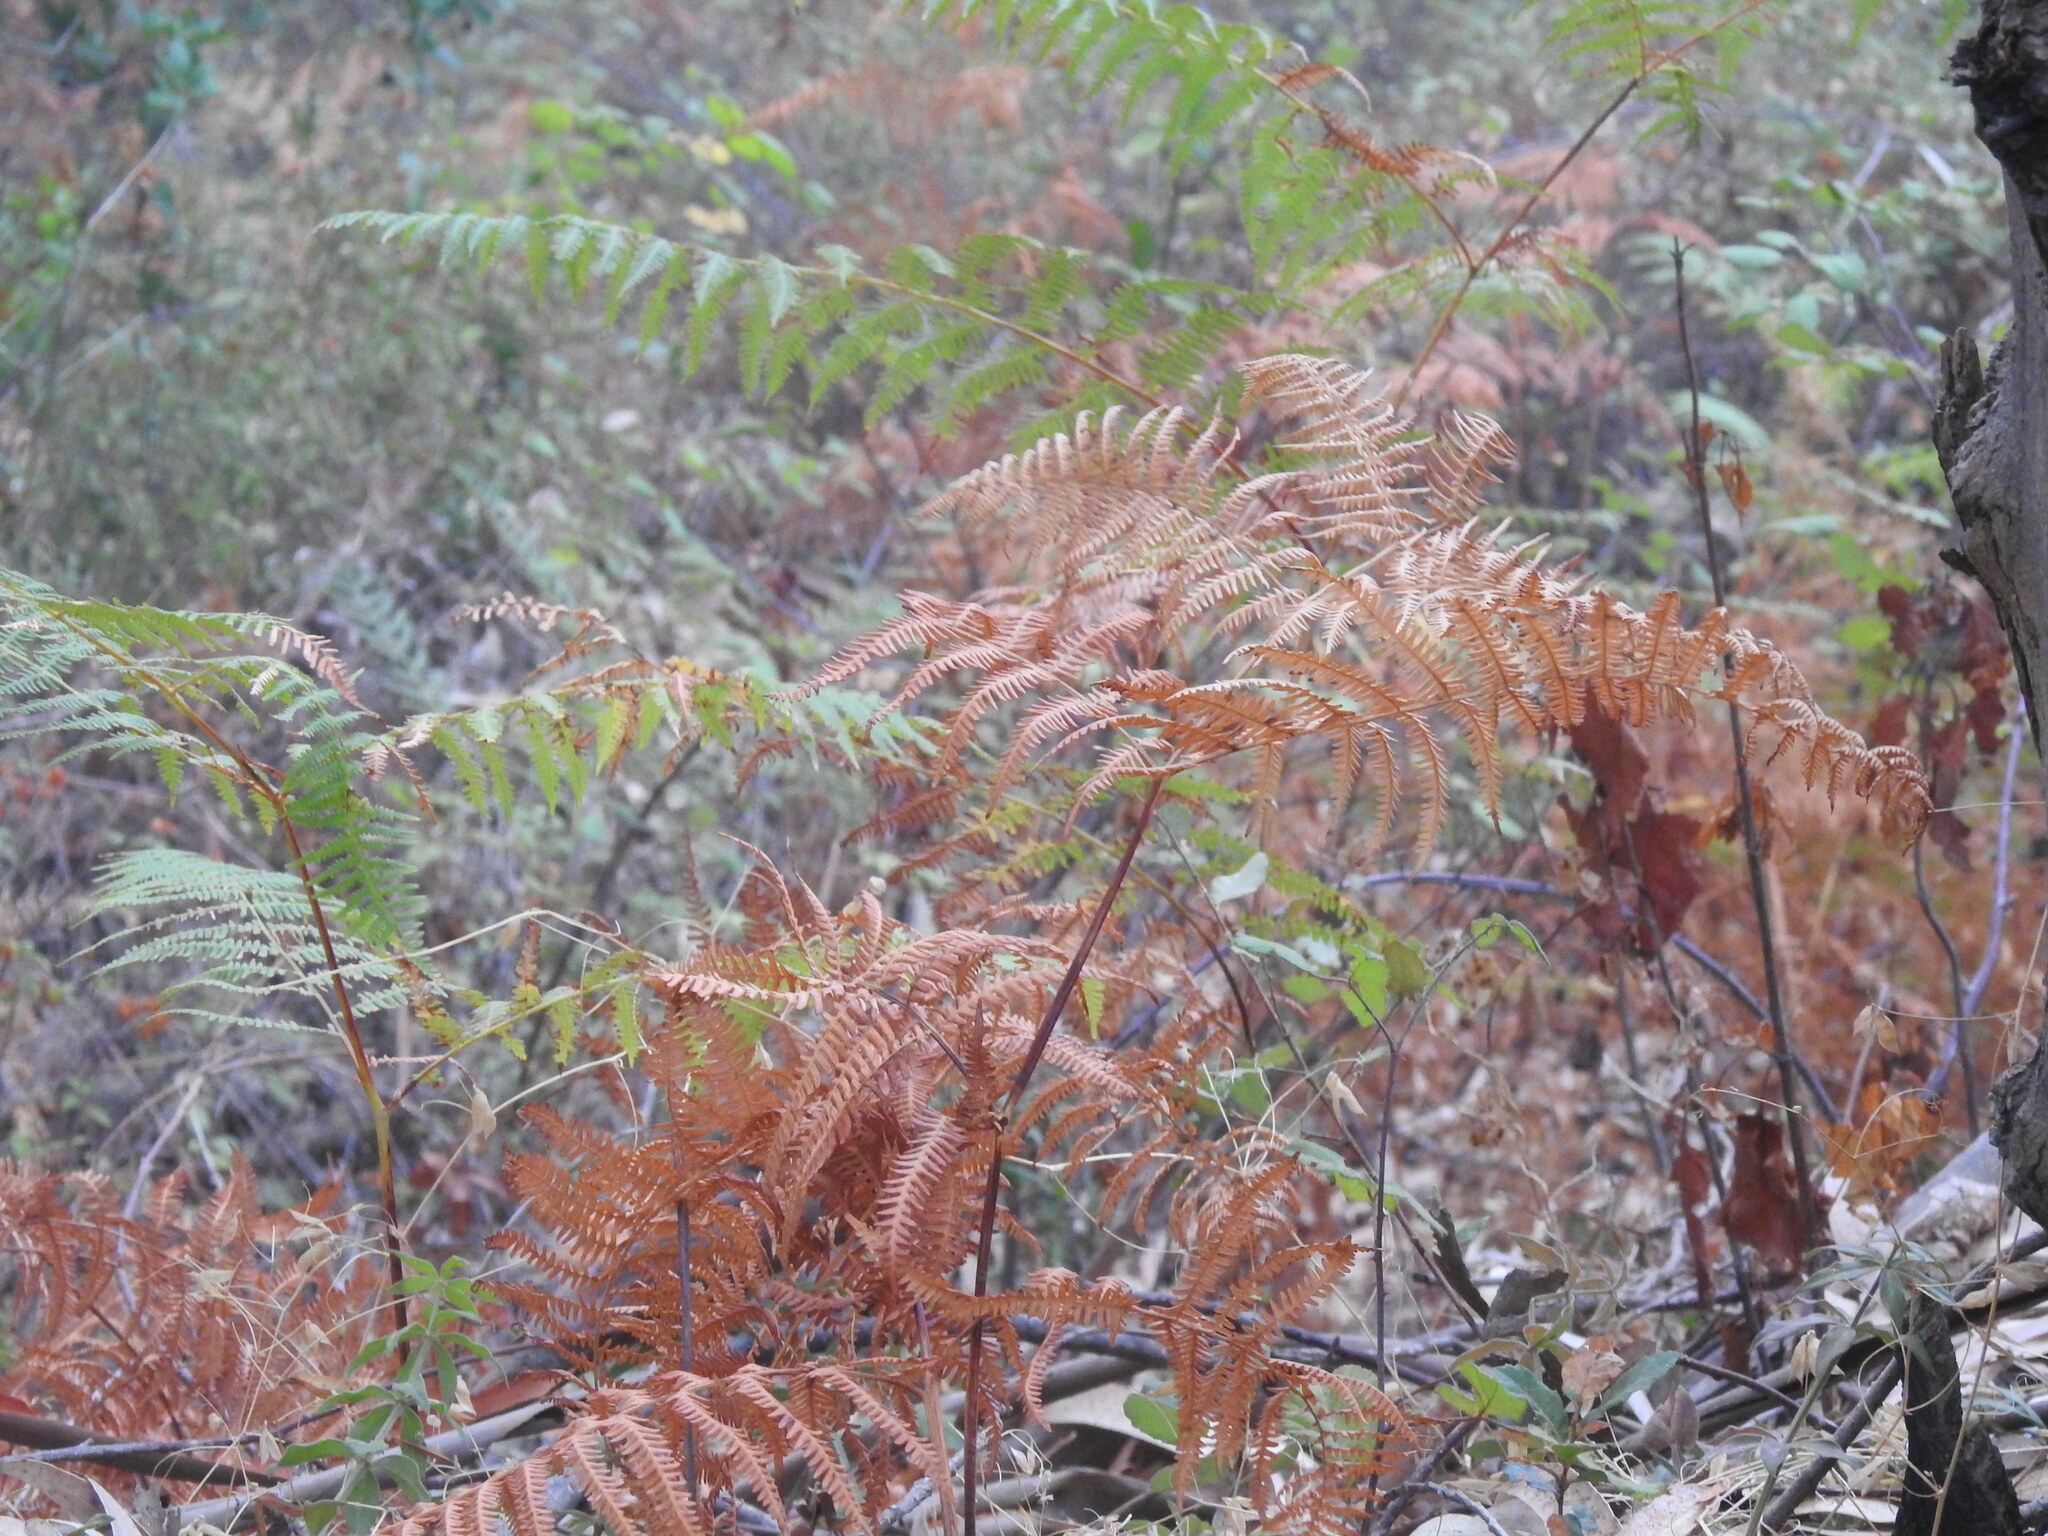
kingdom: Plantae
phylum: Tracheophyta
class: Polypodiopsida
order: Polypodiales
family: Dennstaedtiaceae
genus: Pteridium
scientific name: Pteridium aquilinum
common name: Bracken
